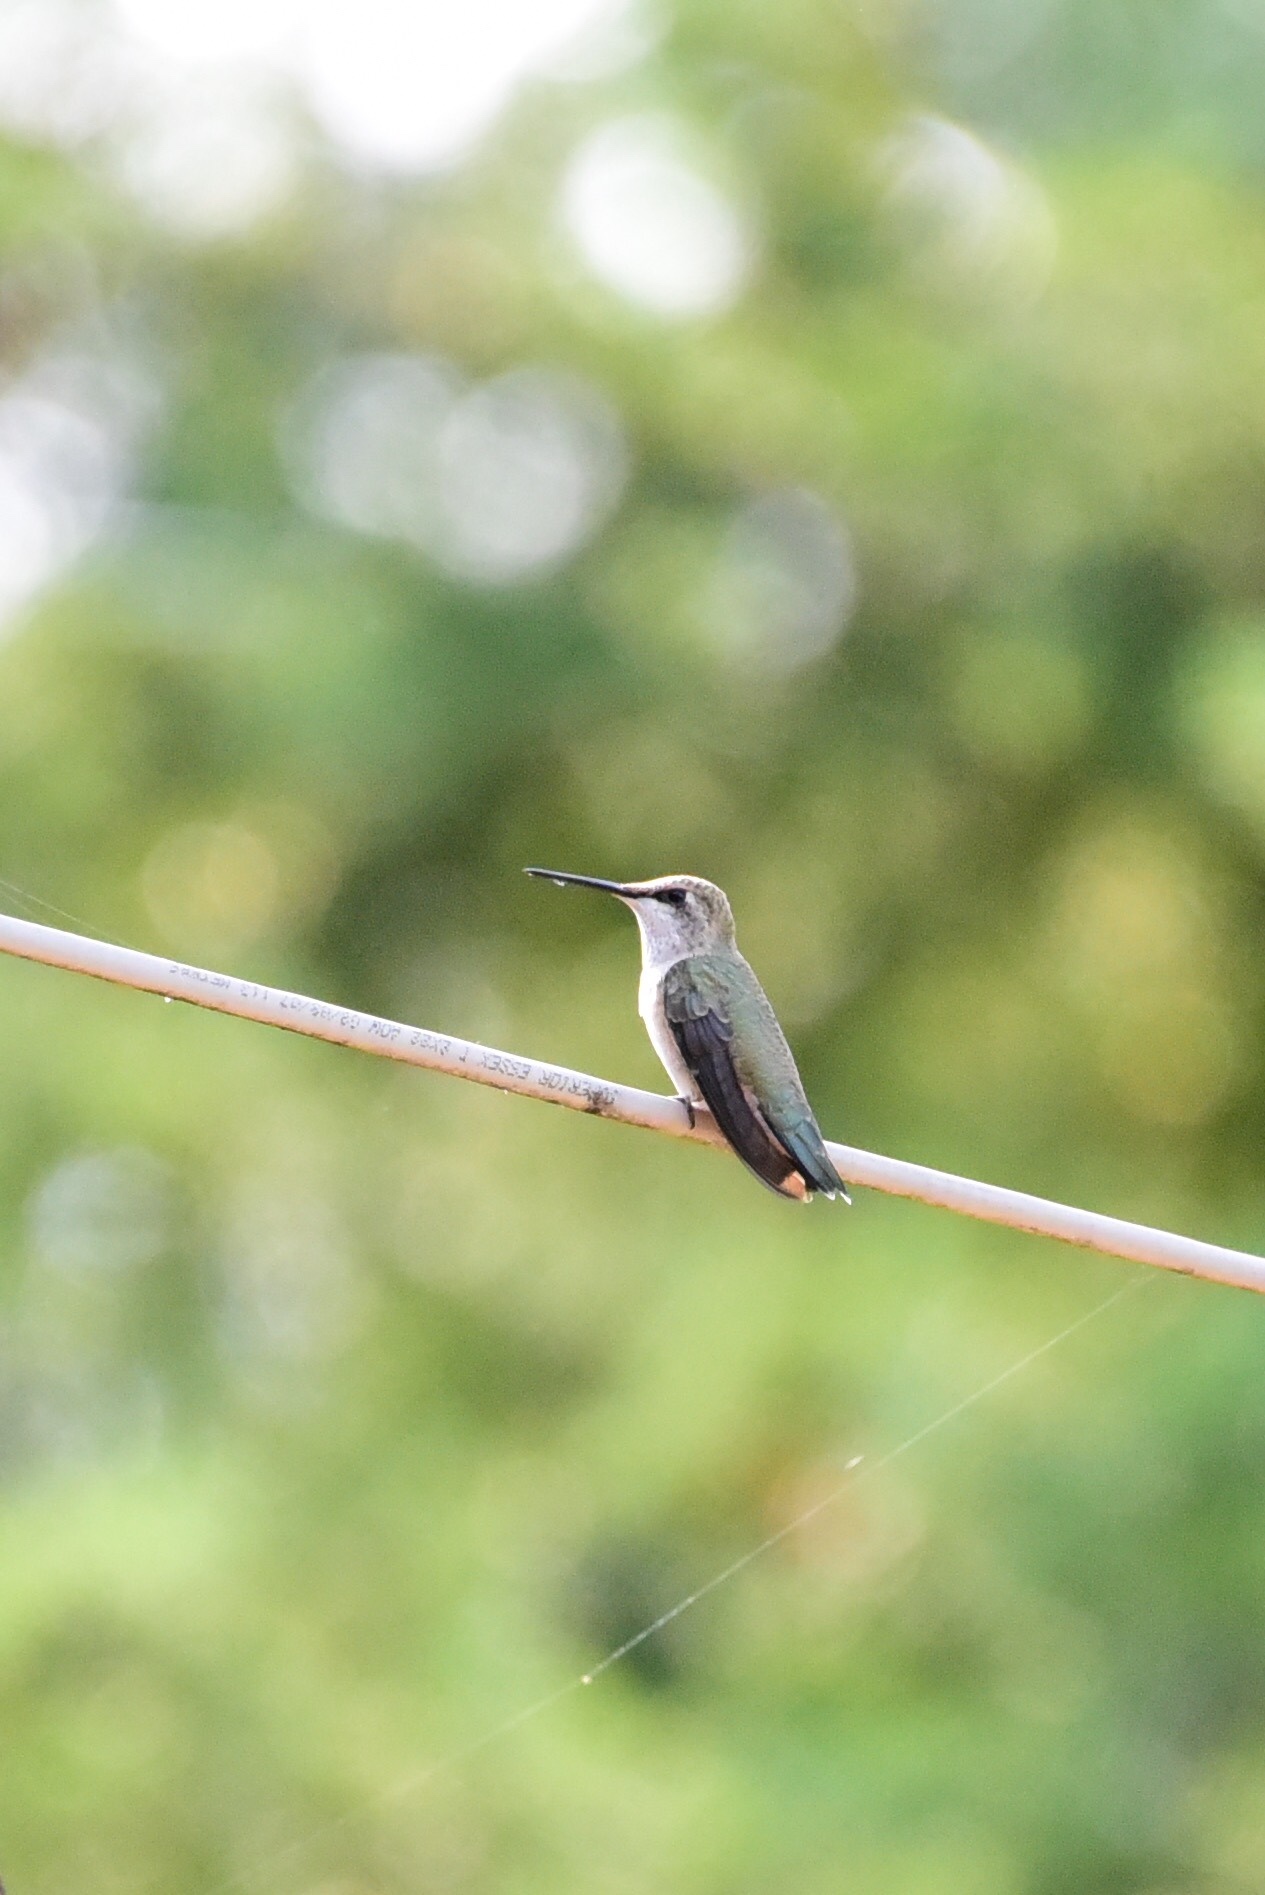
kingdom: Animalia
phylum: Chordata
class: Aves
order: Apodiformes
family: Trochilidae
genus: Archilochus
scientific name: Archilochus alexandri
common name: Black-chinned hummingbird
